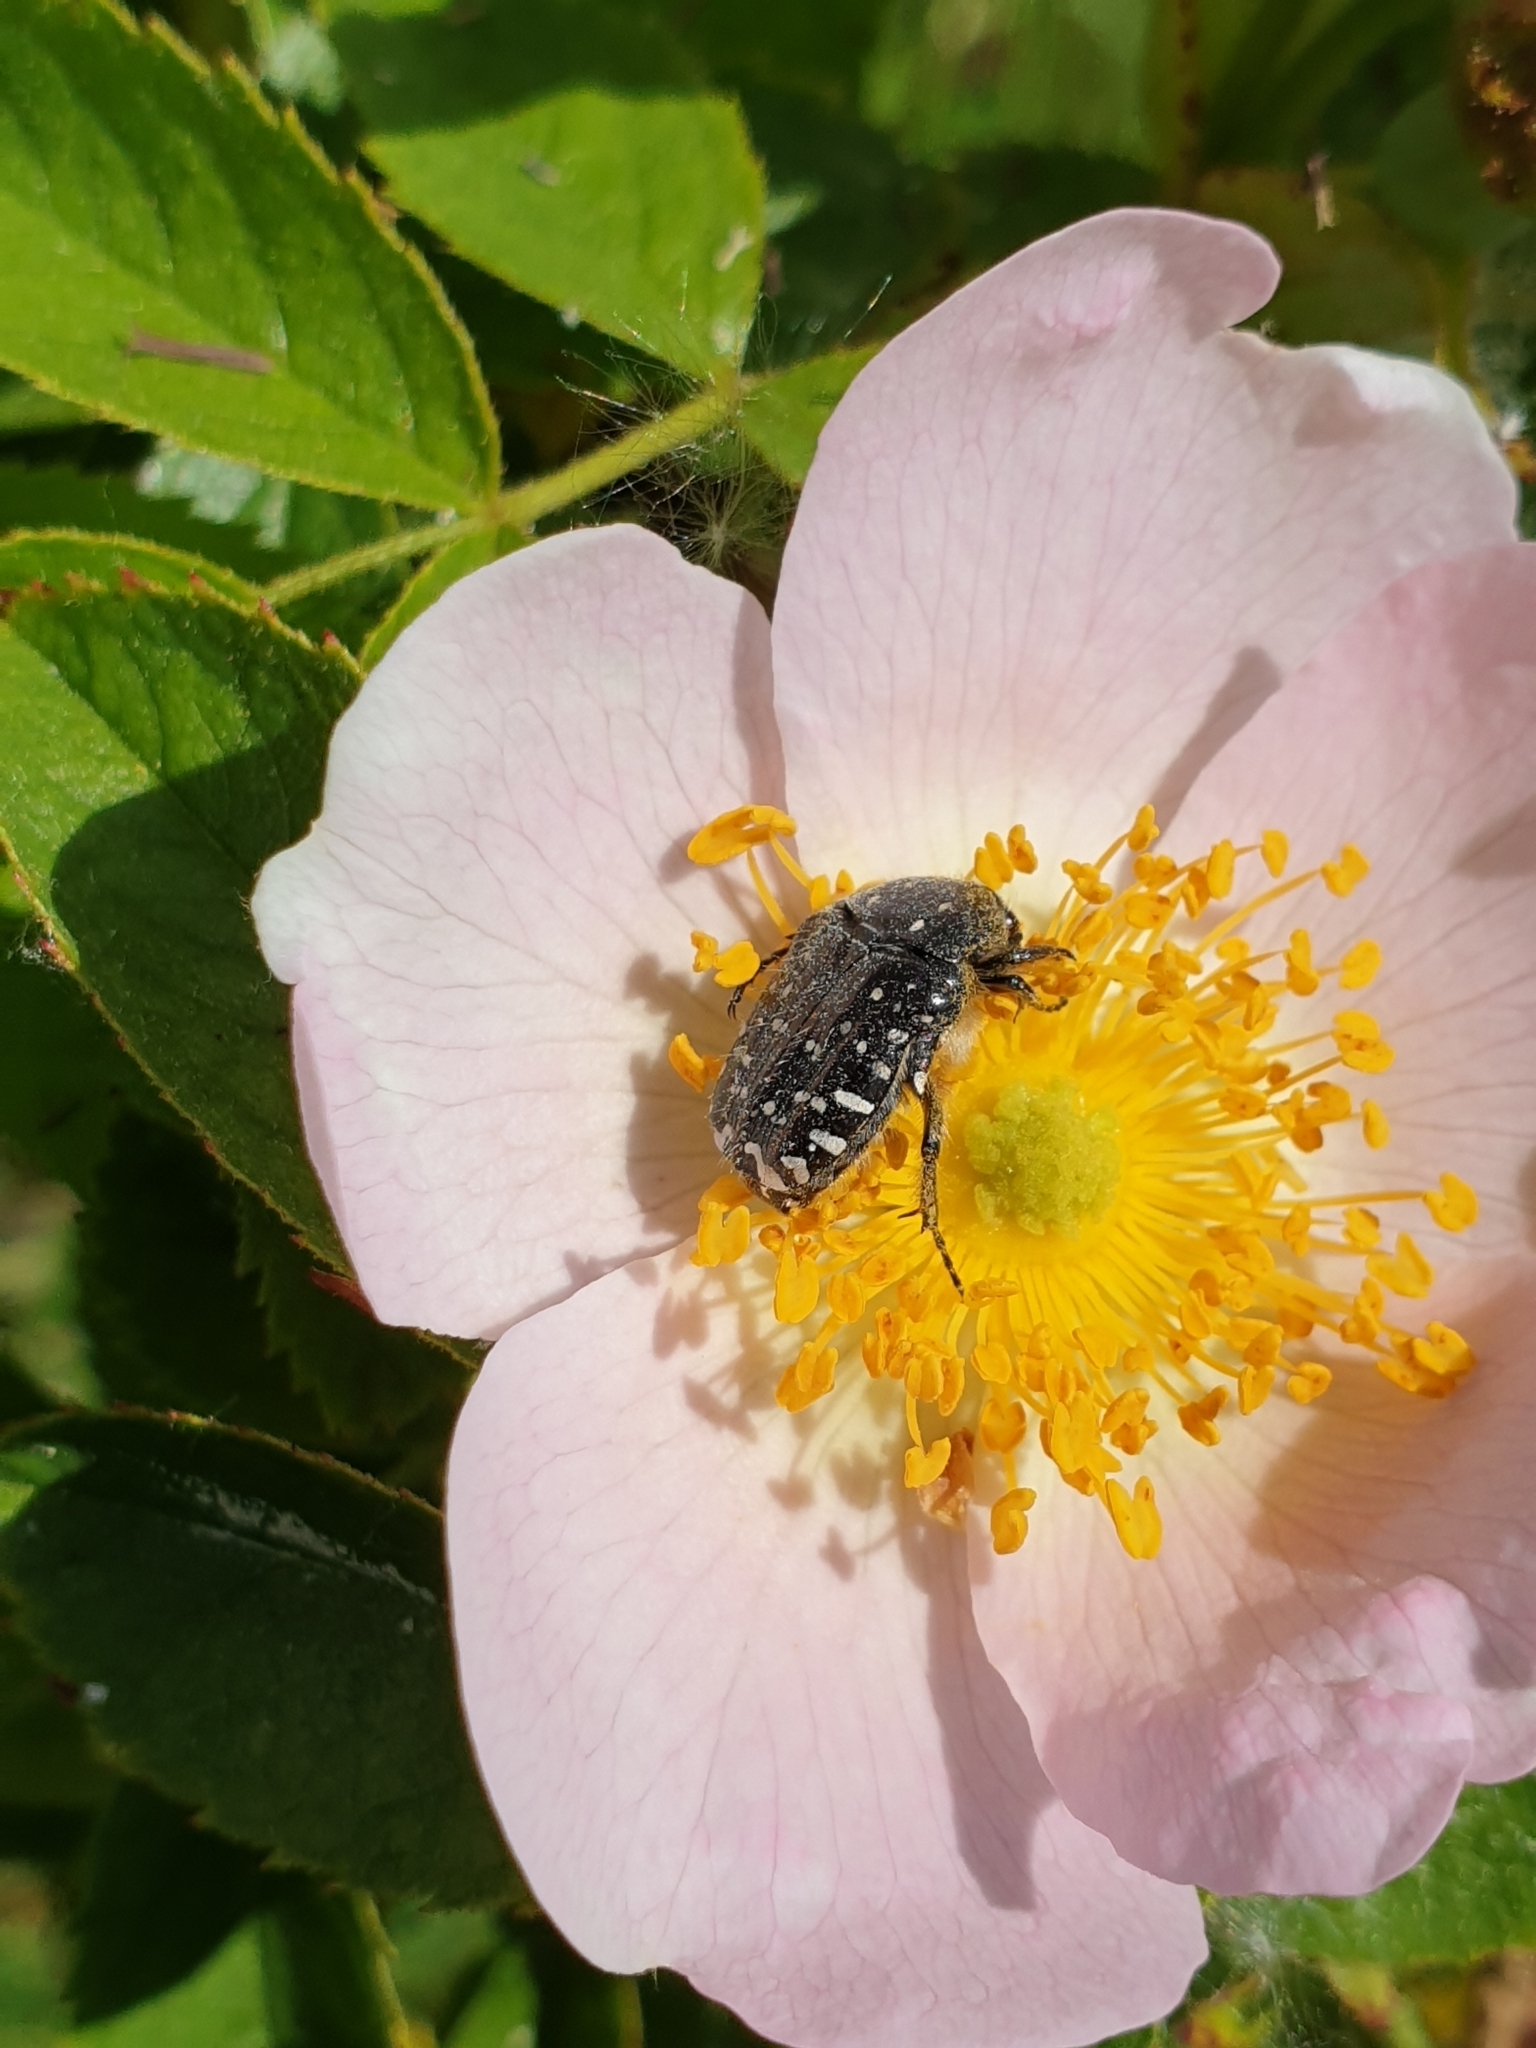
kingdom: Animalia
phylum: Arthropoda
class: Insecta
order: Coleoptera
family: Scarabaeidae
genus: Oxythyrea
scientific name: Oxythyrea funesta
